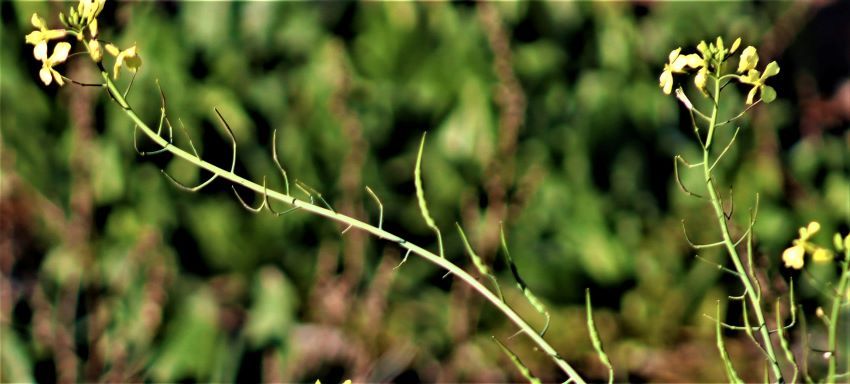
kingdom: Plantae
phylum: Tracheophyta
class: Magnoliopsida
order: Brassicales
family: Brassicaceae
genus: Raphanus
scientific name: Raphanus raphanistrum
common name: Wild radish
